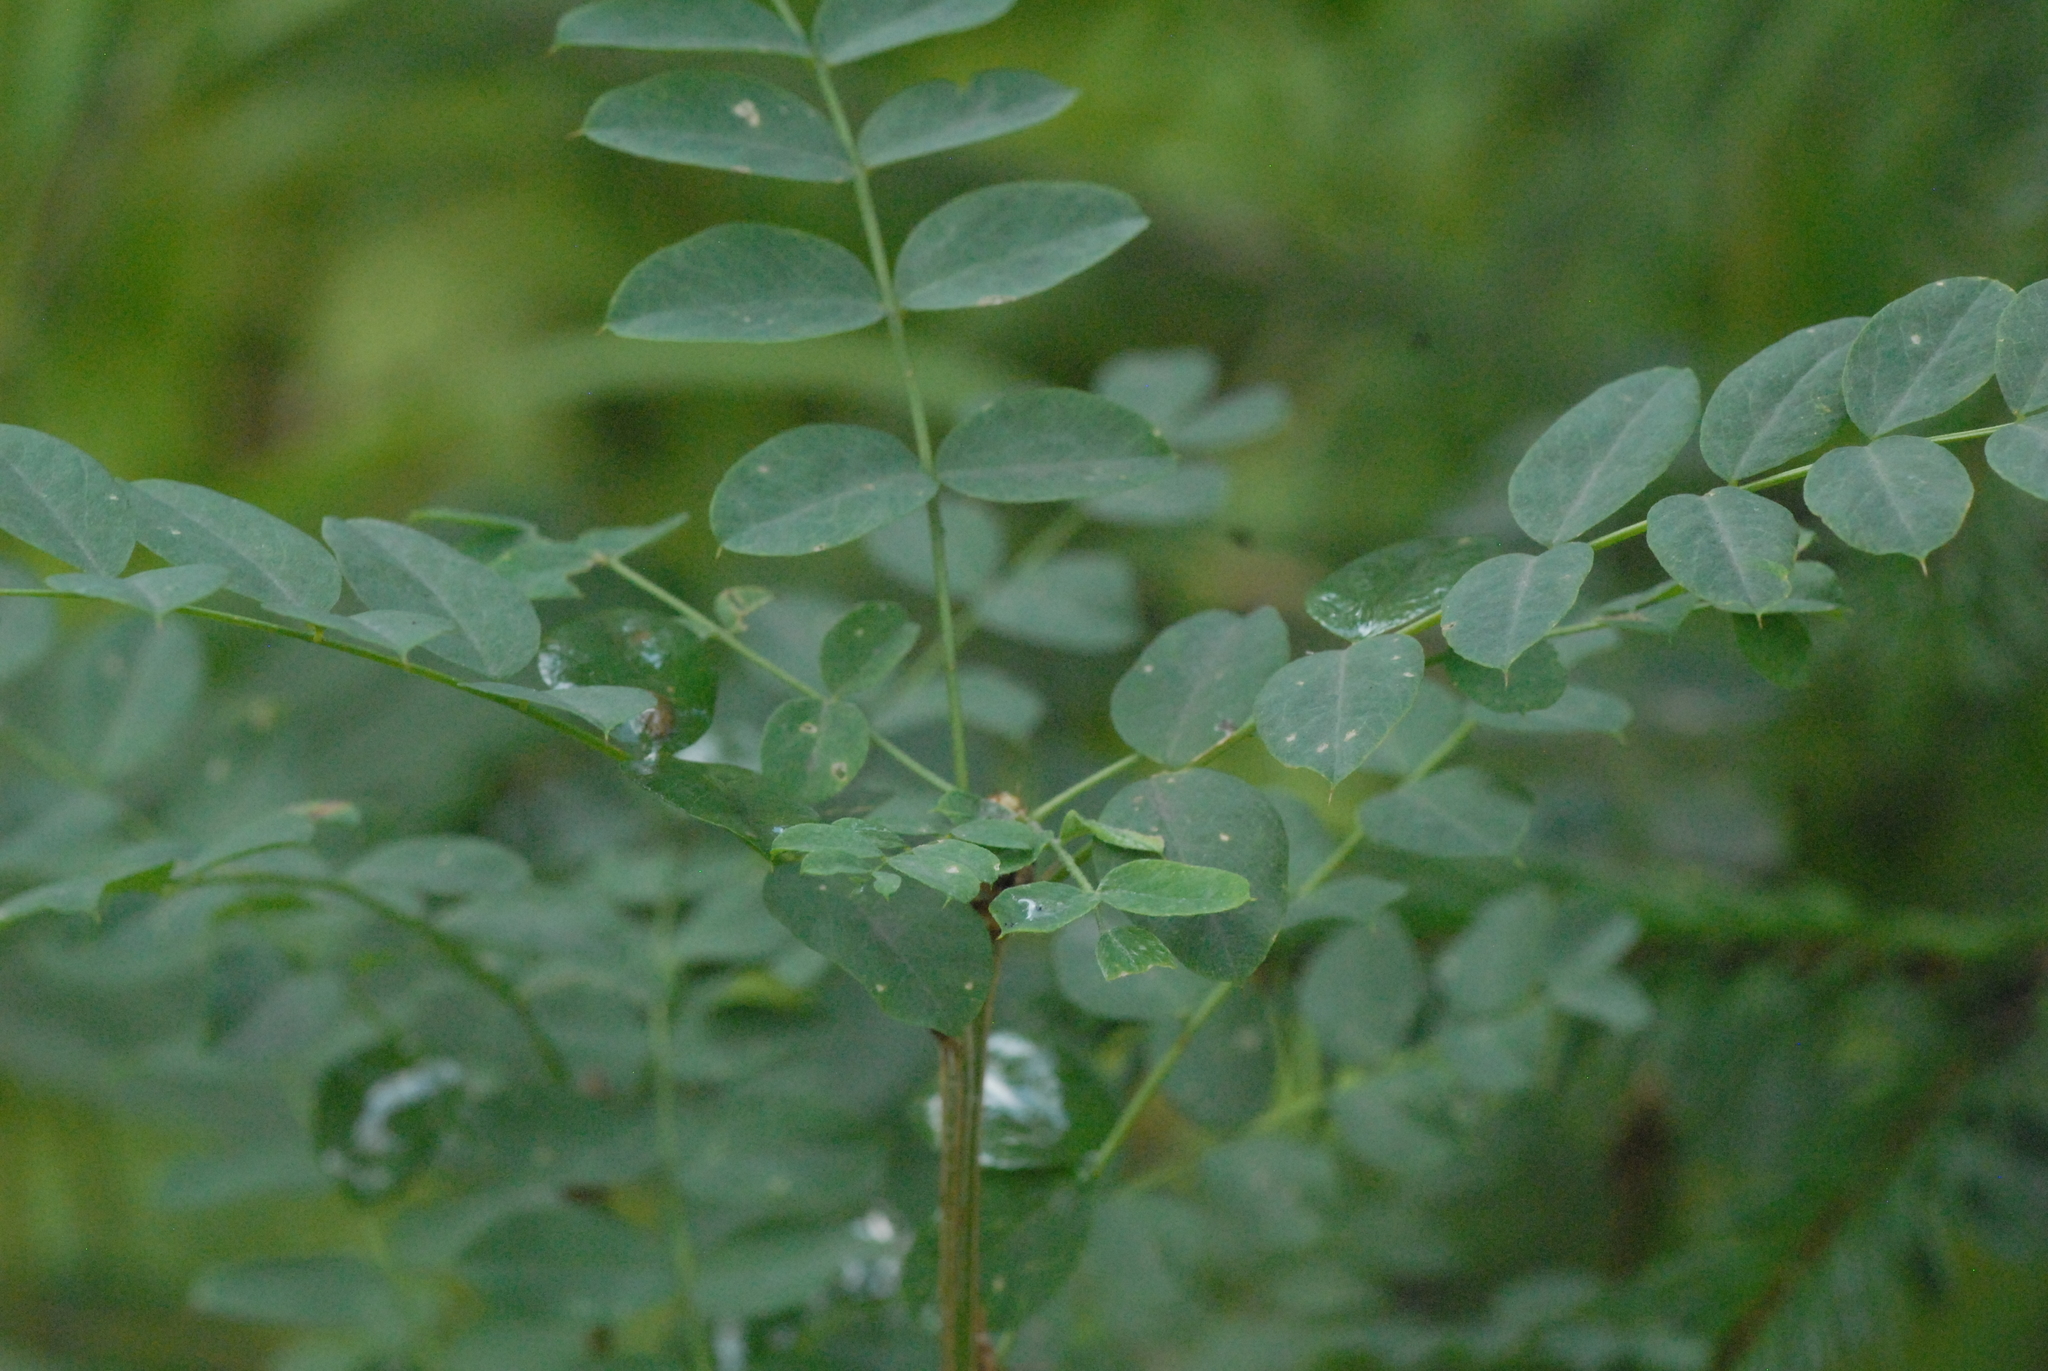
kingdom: Plantae
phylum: Tracheophyta
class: Magnoliopsida
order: Fabales
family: Fabaceae
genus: Caragana
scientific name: Caragana arborescens
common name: Siberian peashrub
